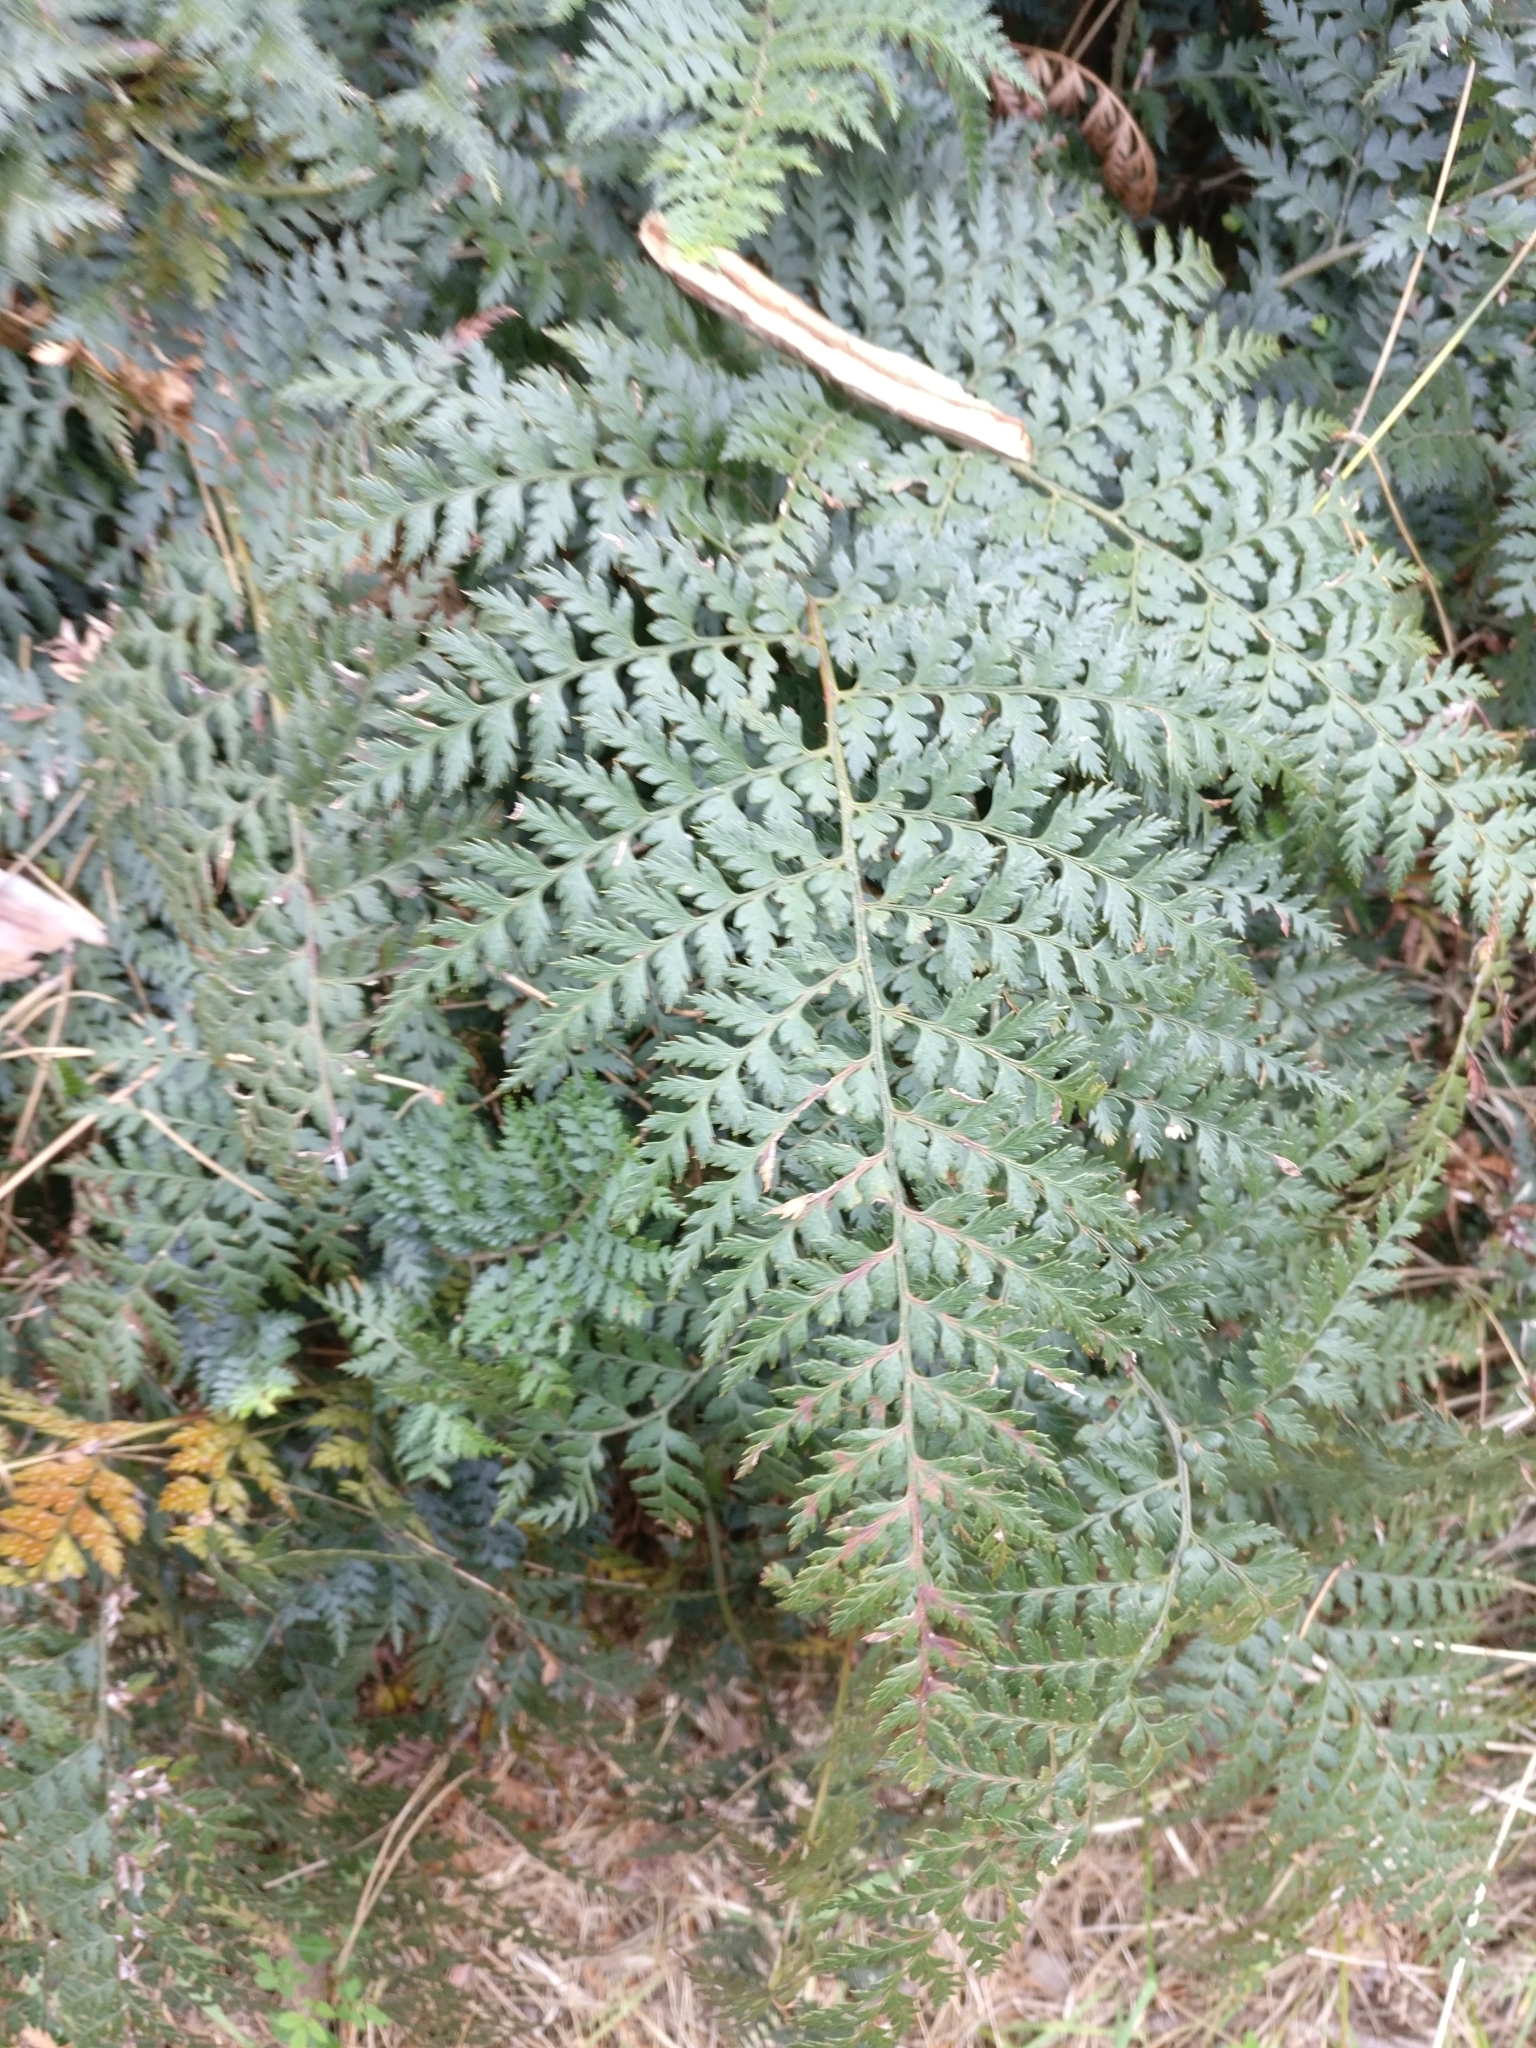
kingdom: Plantae
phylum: Tracheophyta
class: Polypodiopsida
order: Polypodiales
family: Dryopteridaceae
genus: Polystichum
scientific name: Polystichum oculatum
